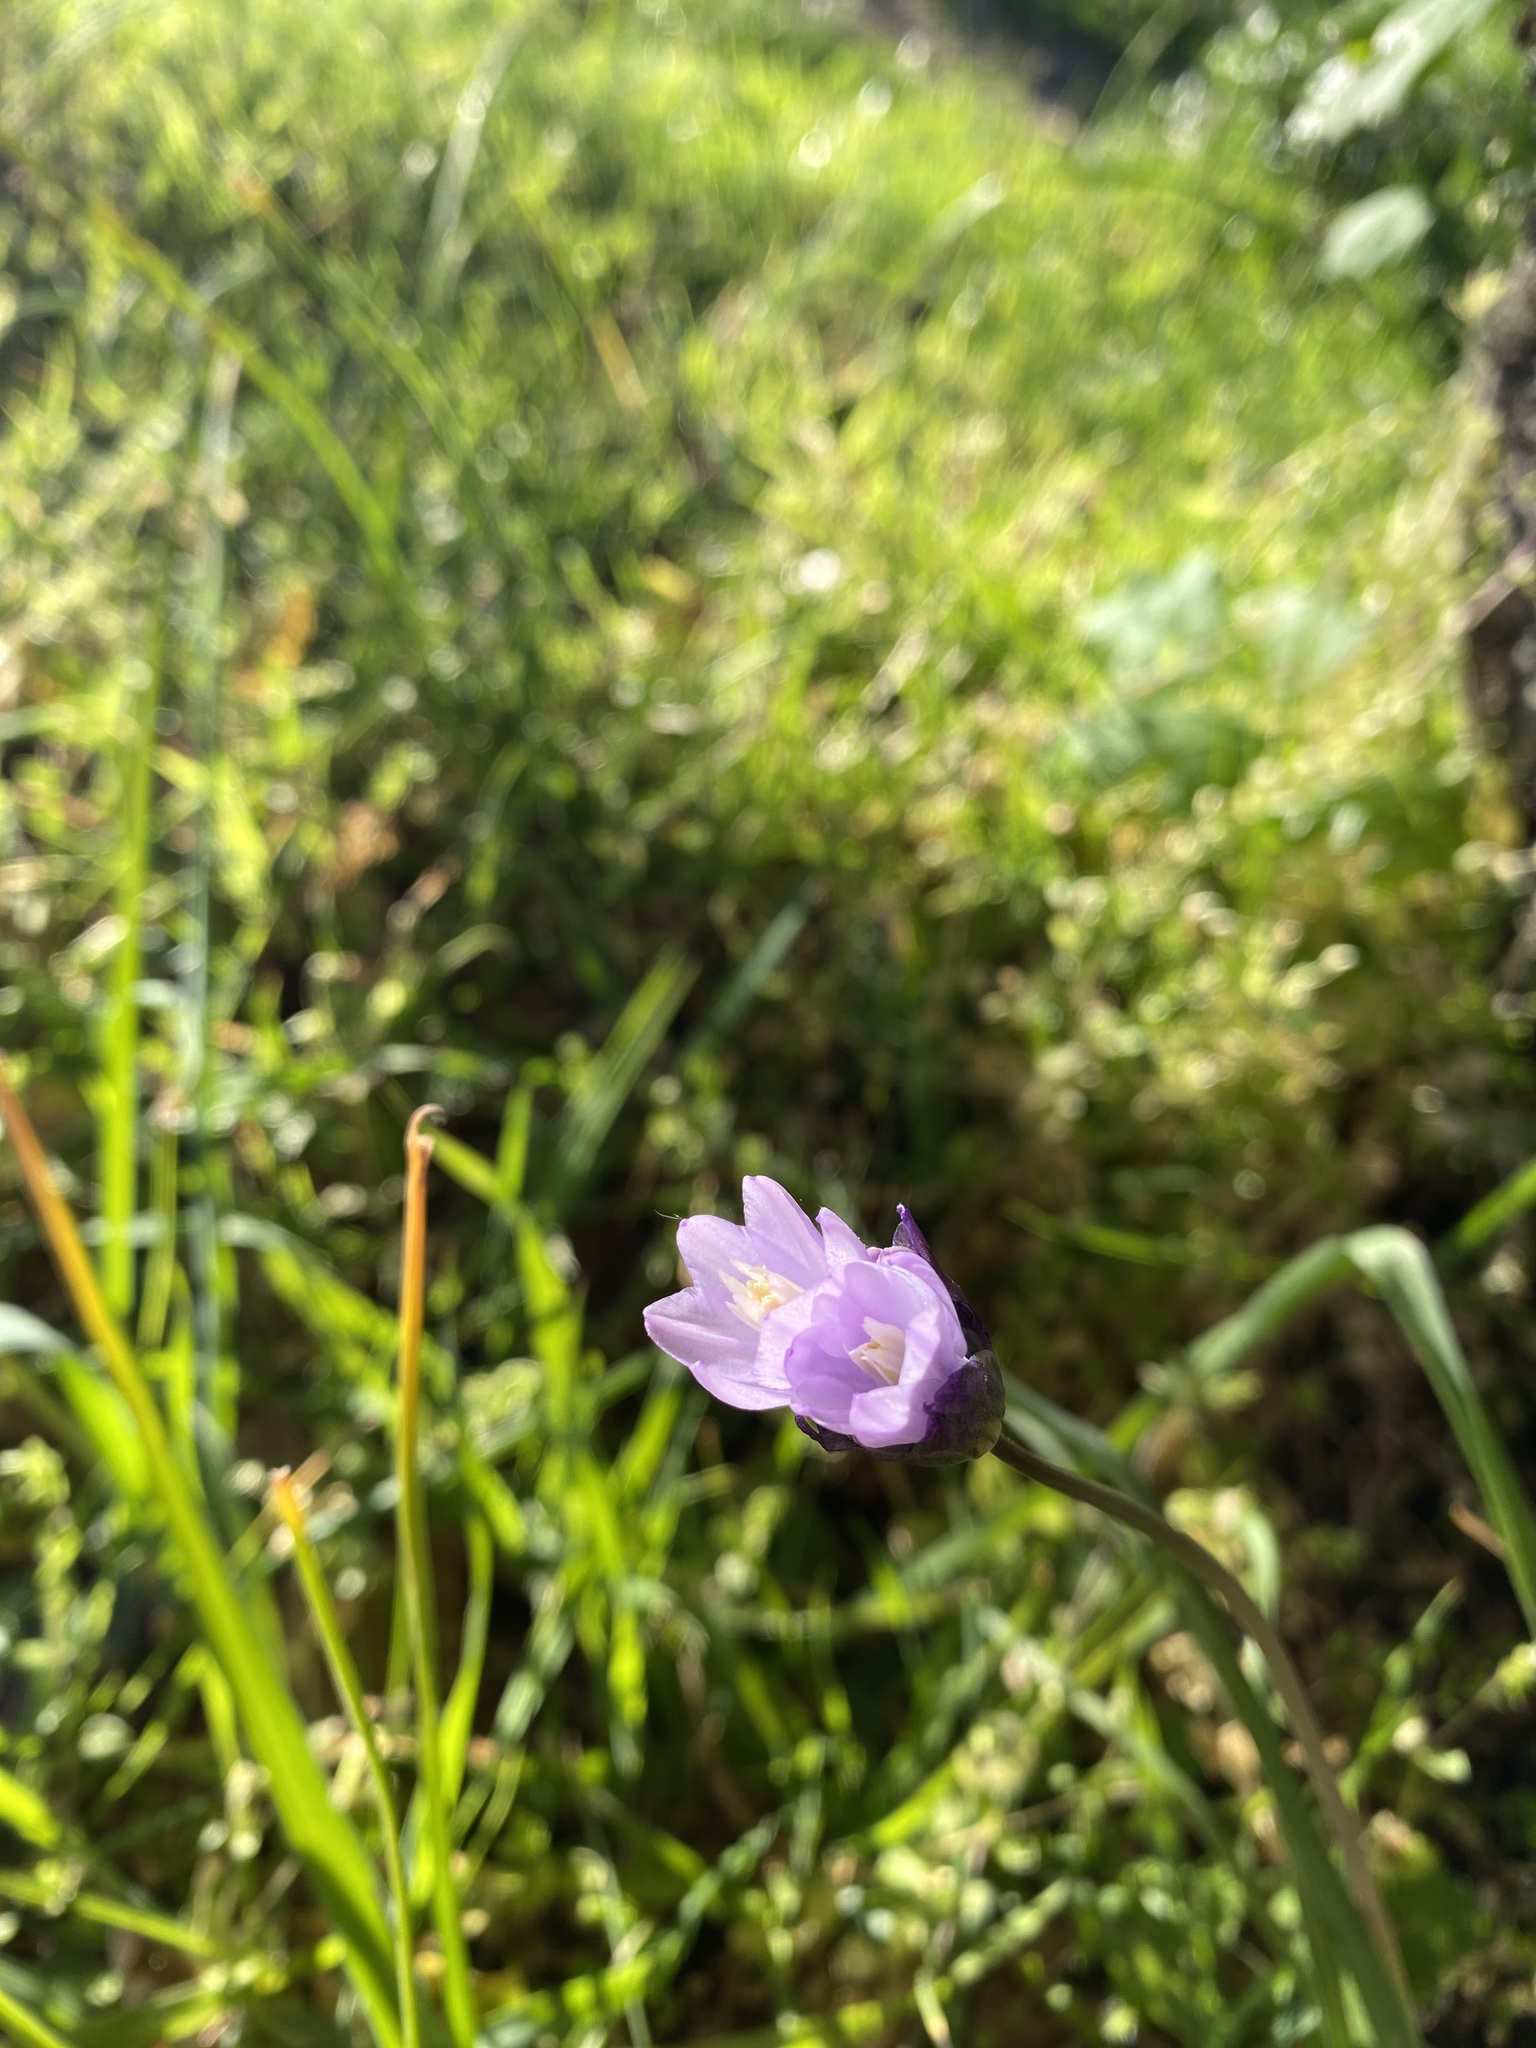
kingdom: Plantae
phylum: Tracheophyta
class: Liliopsida
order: Asparagales
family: Asparagaceae
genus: Dipterostemon
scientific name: Dipterostemon capitatus
